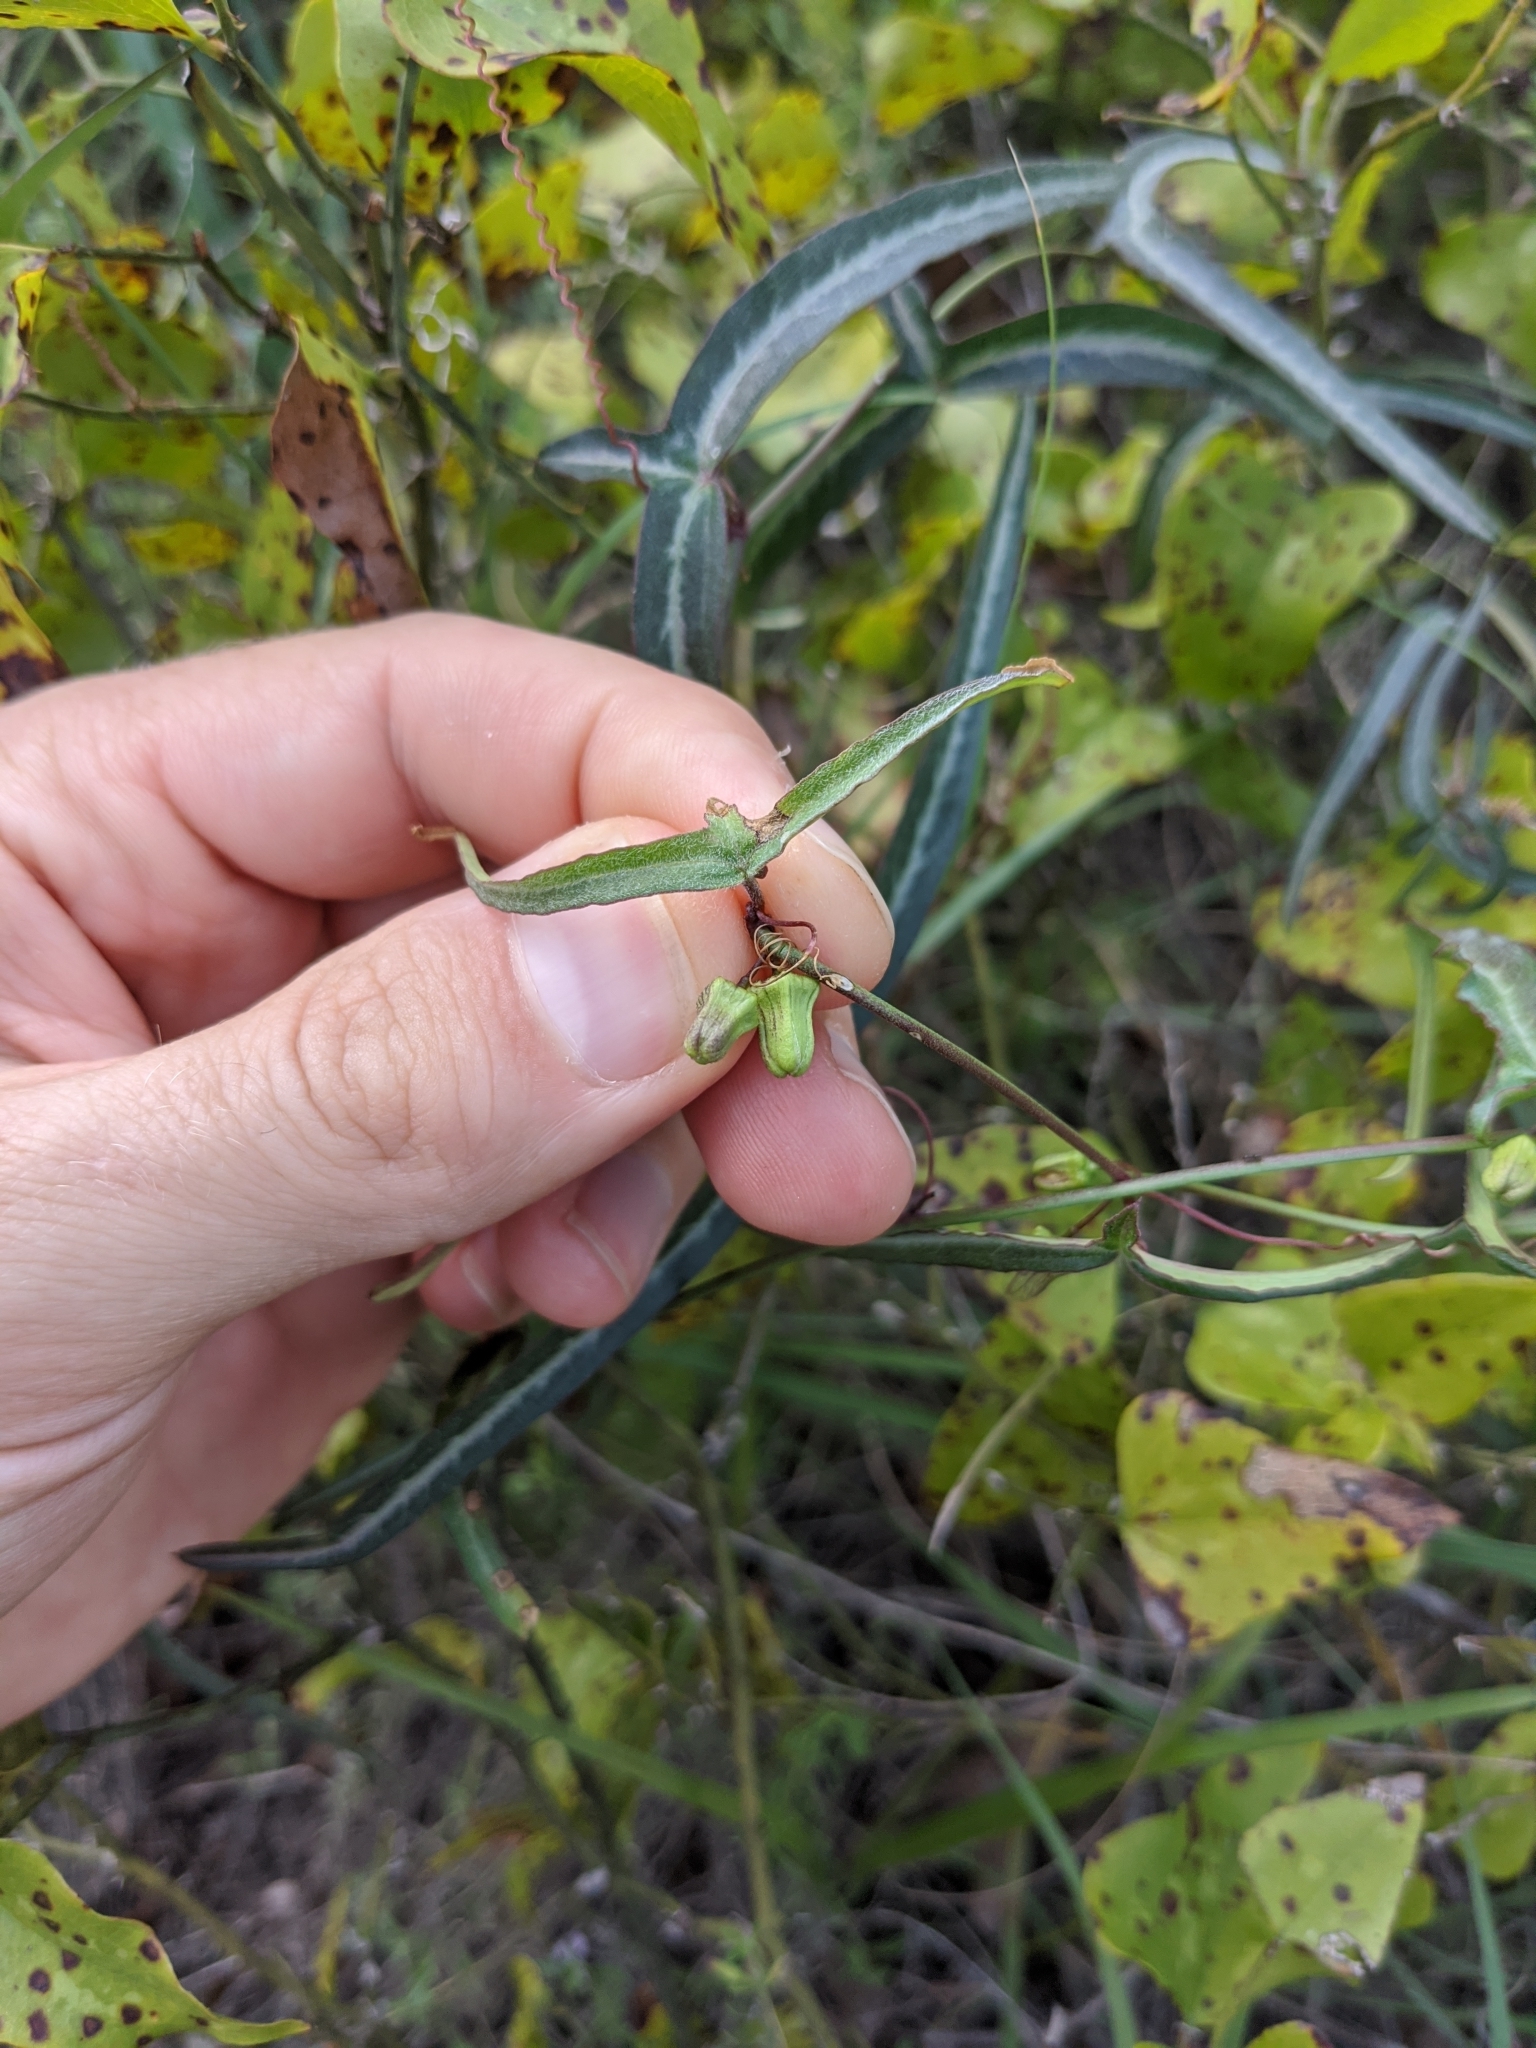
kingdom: Plantae
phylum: Tracheophyta
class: Magnoliopsida
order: Malpighiales
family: Passifloraceae
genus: Passiflora
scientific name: Passiflora tenuiloba
